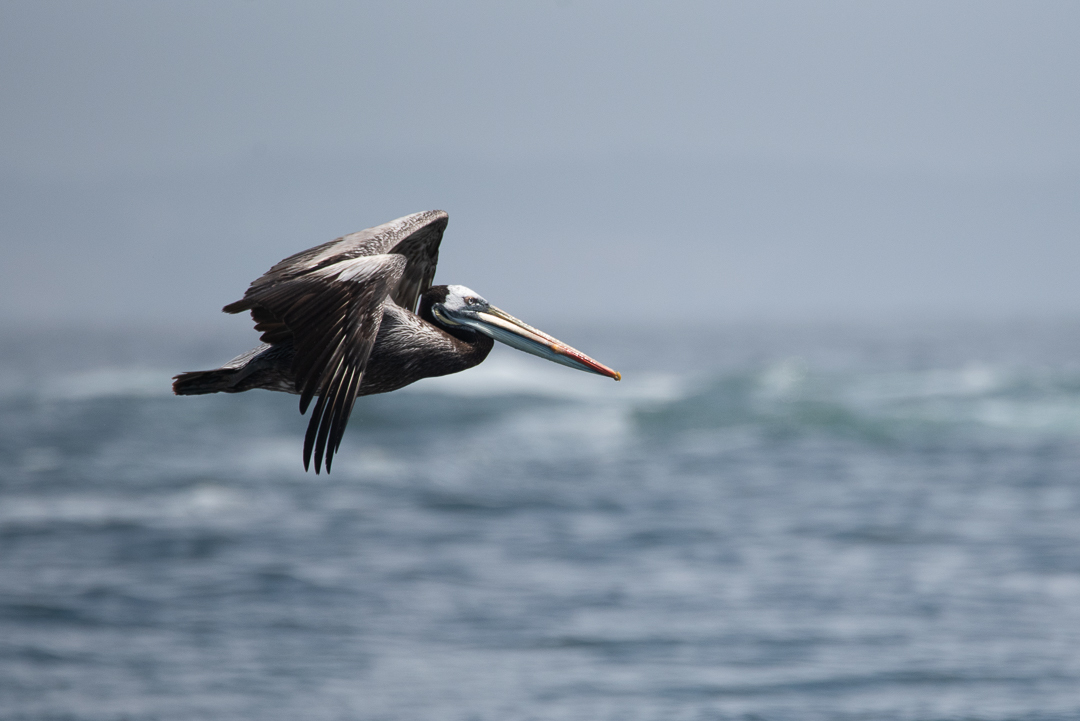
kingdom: Animalia
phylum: Chordata
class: Aves
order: Pelecaniformes
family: Pelecanidae
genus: Pelecanus
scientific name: Pelecanus thagus
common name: Peruvian pelican
